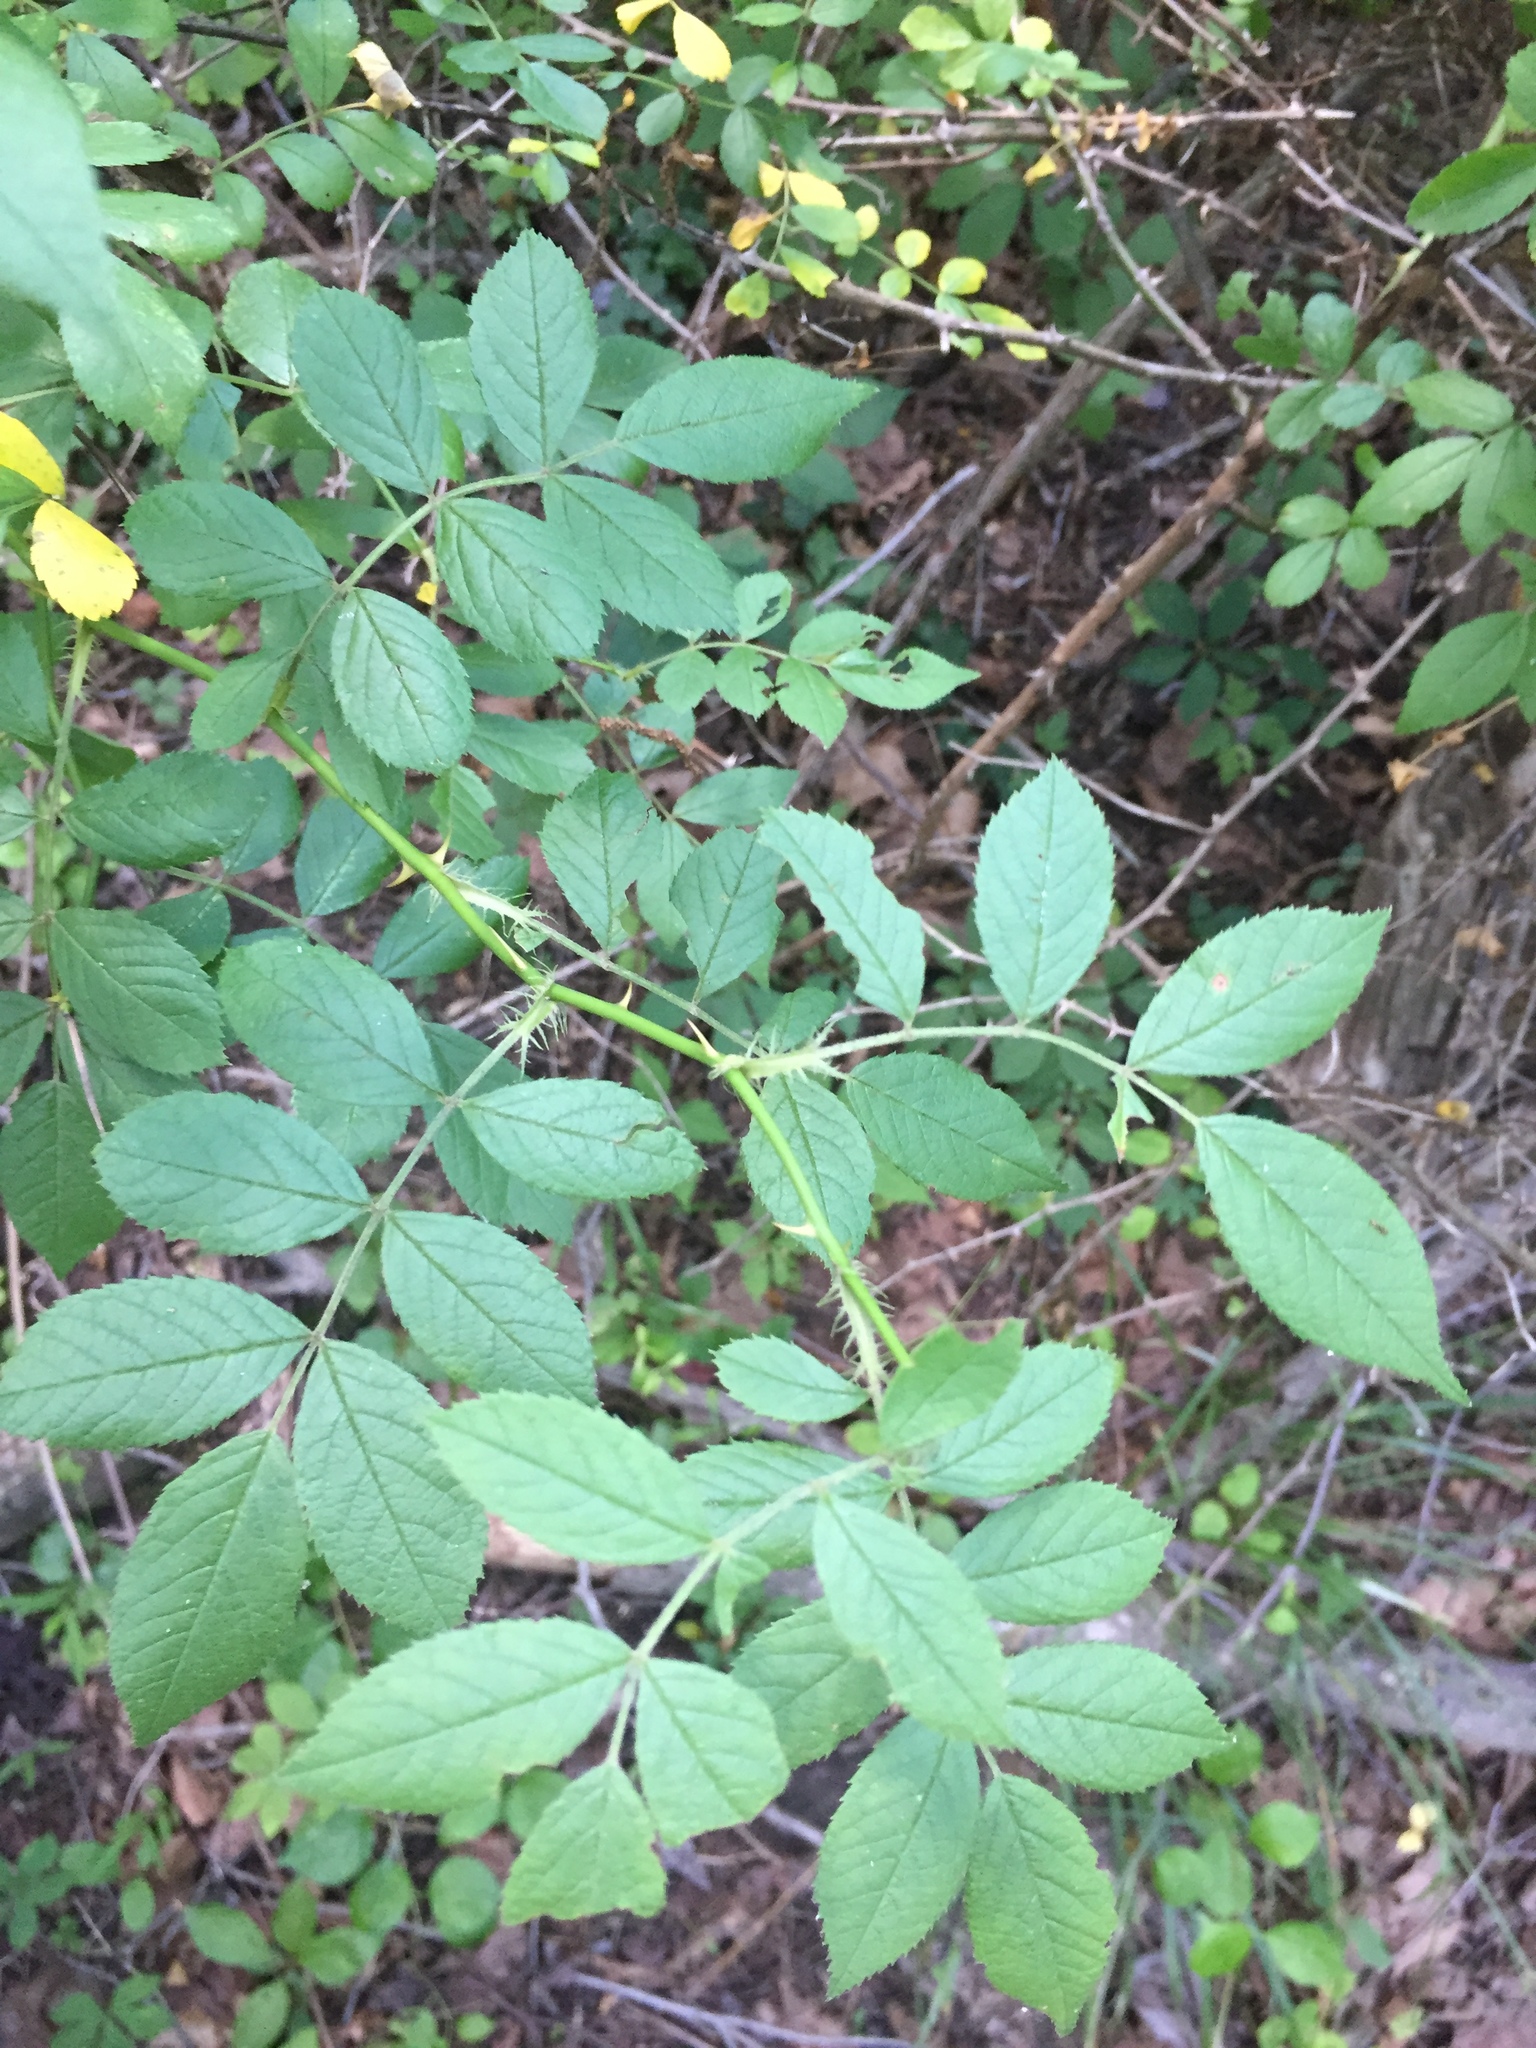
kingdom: Plantae
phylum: Tracheophyta
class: Magnoliopsida
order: Rosales
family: Rosaceae
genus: Rosa
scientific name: Rosa multiflora
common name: Multiflora rose
